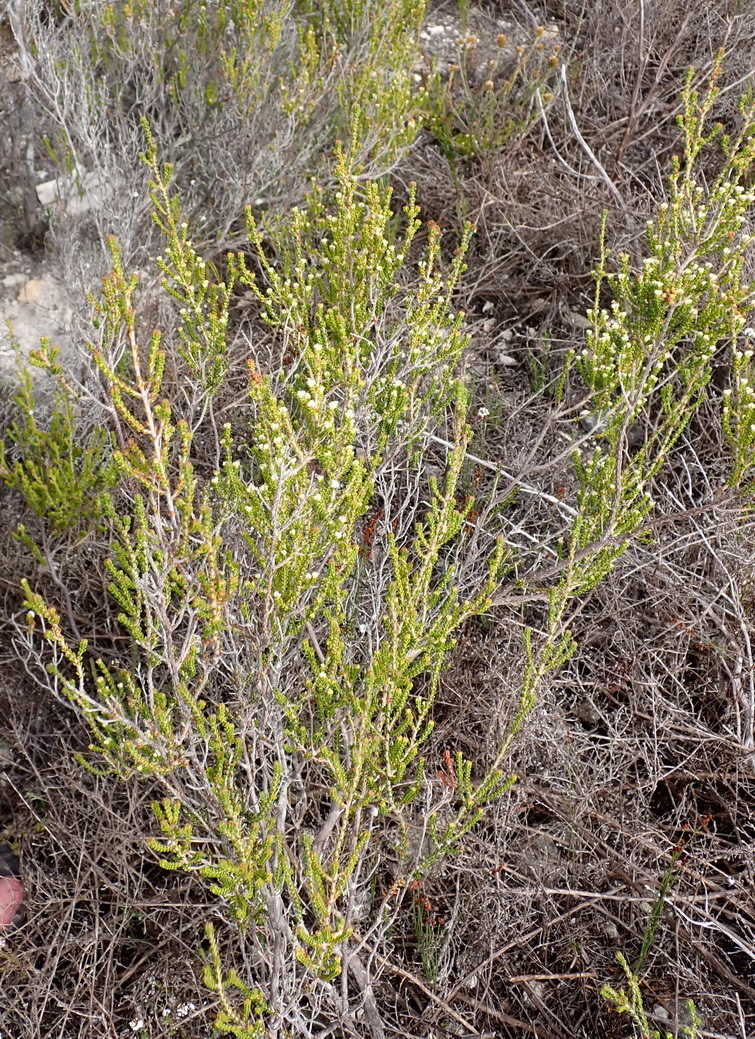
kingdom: Plantae
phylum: Tracheophyta
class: Magnoliopsida
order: Ericales
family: Ericaceae
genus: Erica
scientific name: Erica spectabilis
